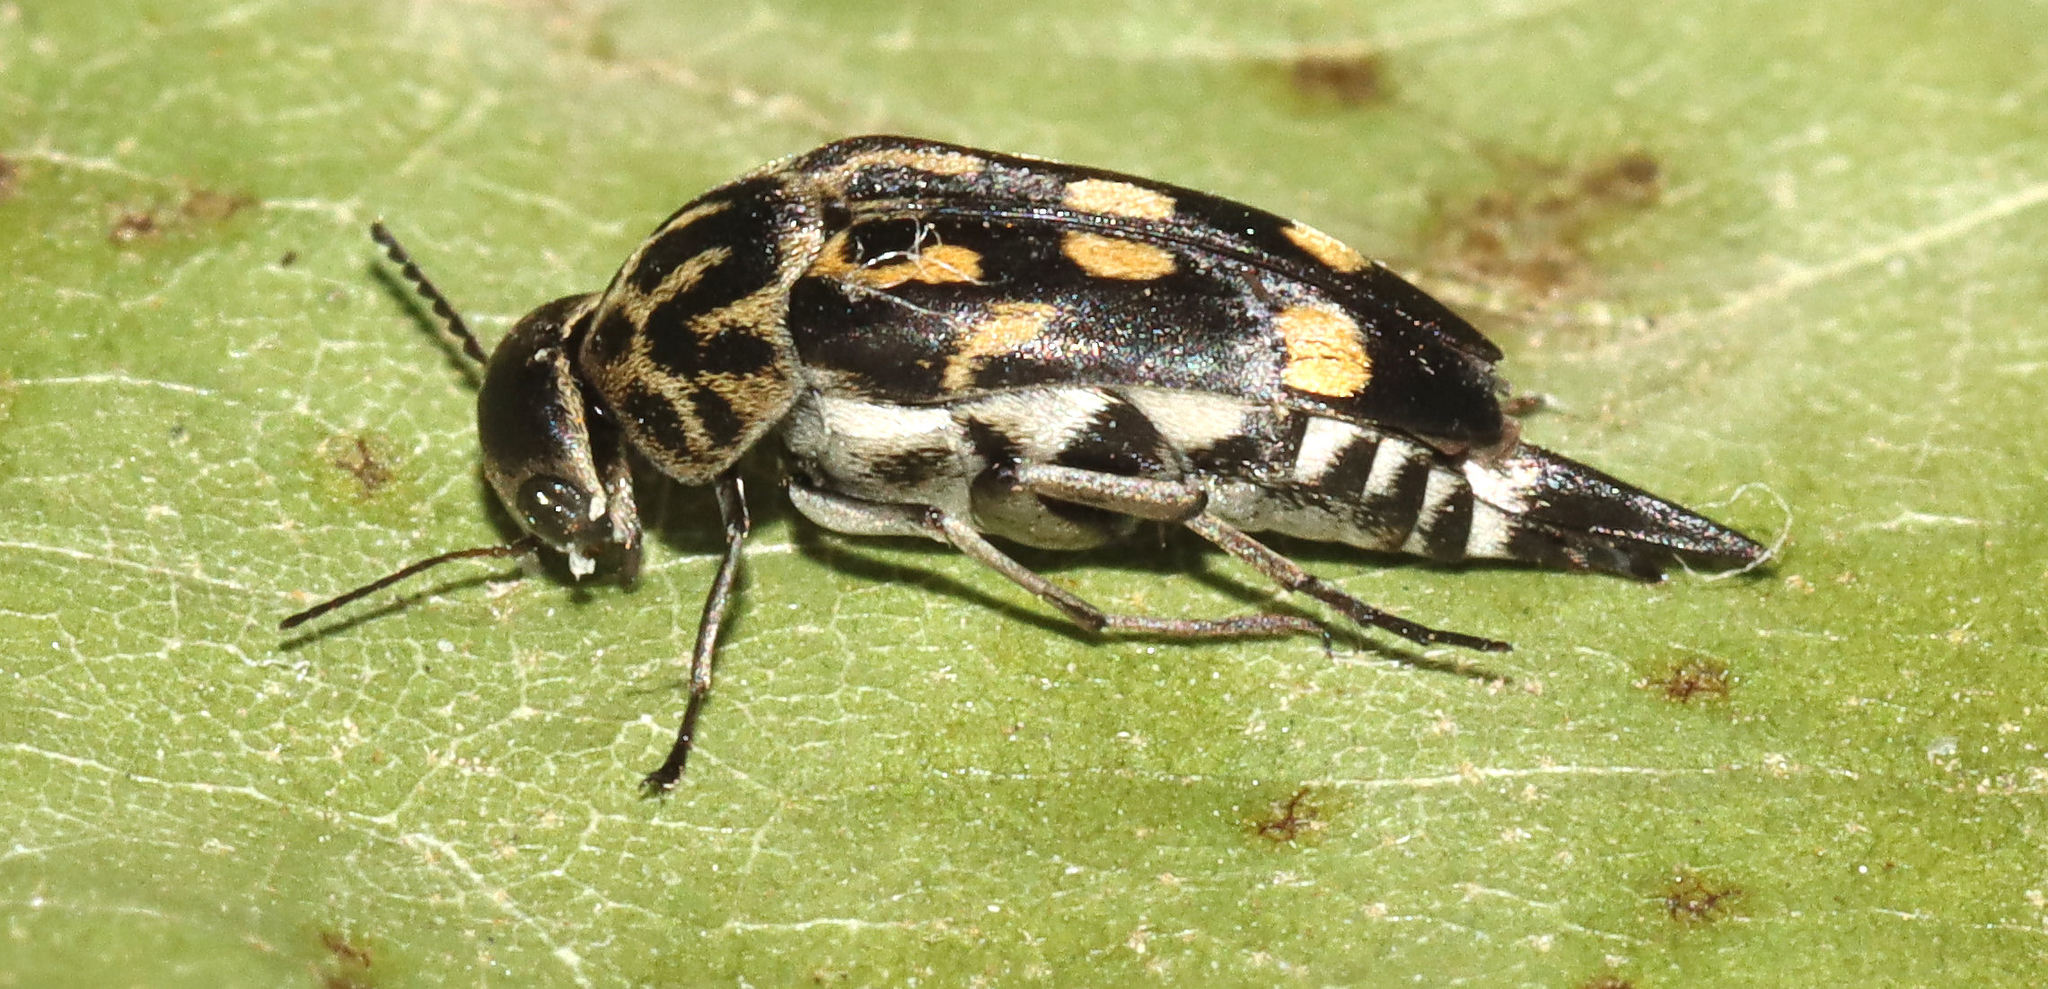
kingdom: Animalia
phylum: Arthropoda
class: Insecta
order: Coleoptera
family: Mordellidae
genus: Hoshihananomia
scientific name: Hoshihananomia octopunctata
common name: Eight-spotted tumbling flower beetle
